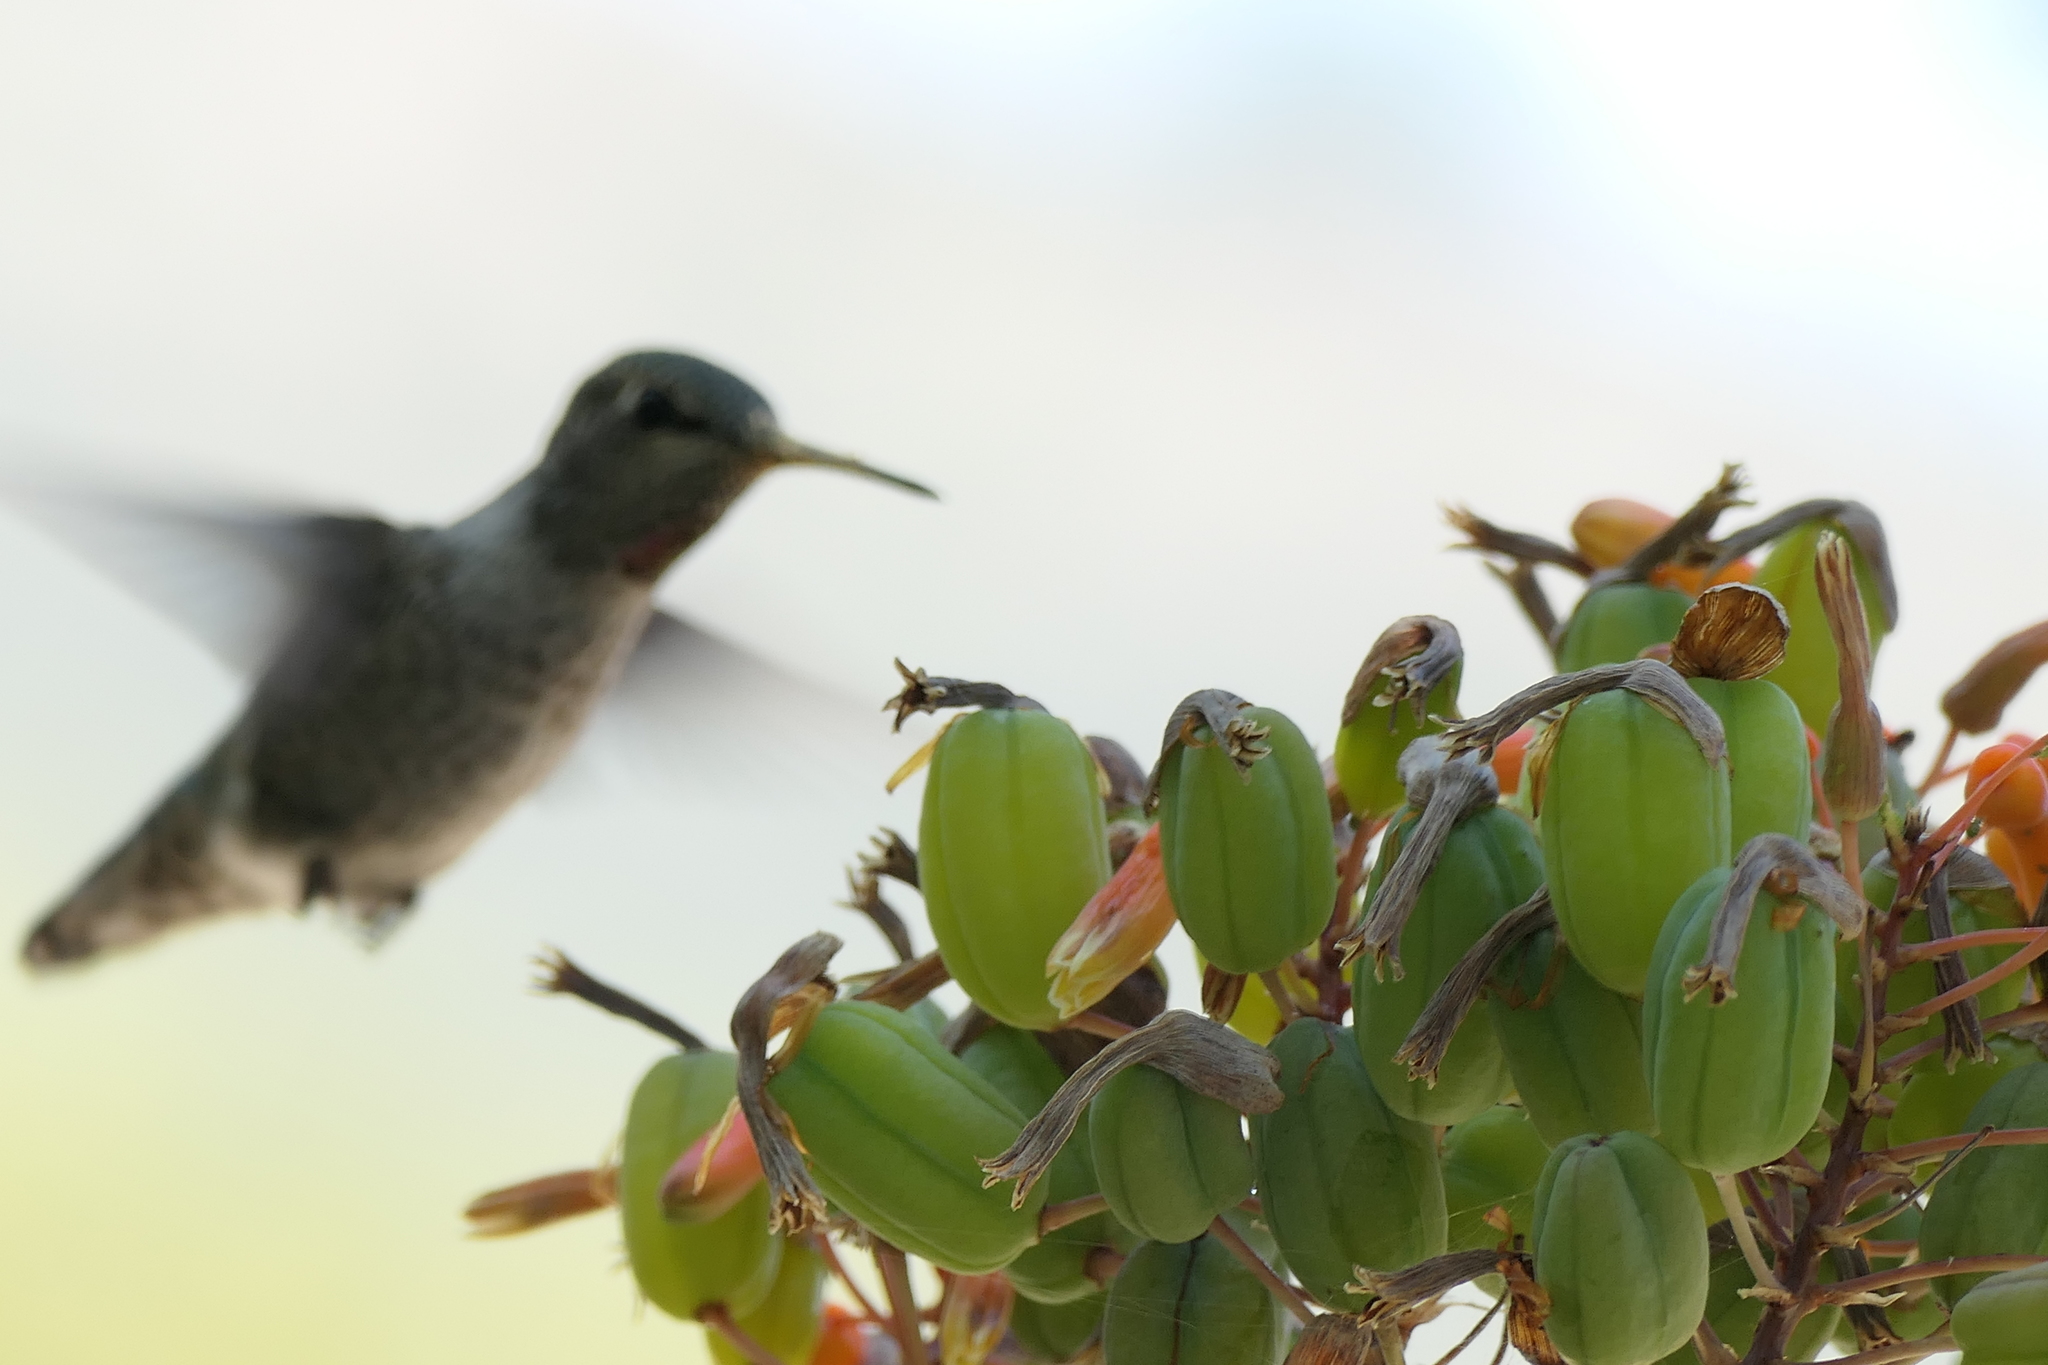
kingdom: Animalia
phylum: Chordata
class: Aves
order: Apodiformes
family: Trochilidae
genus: Calypte
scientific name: Calypte anna
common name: Anna's hummingbird
